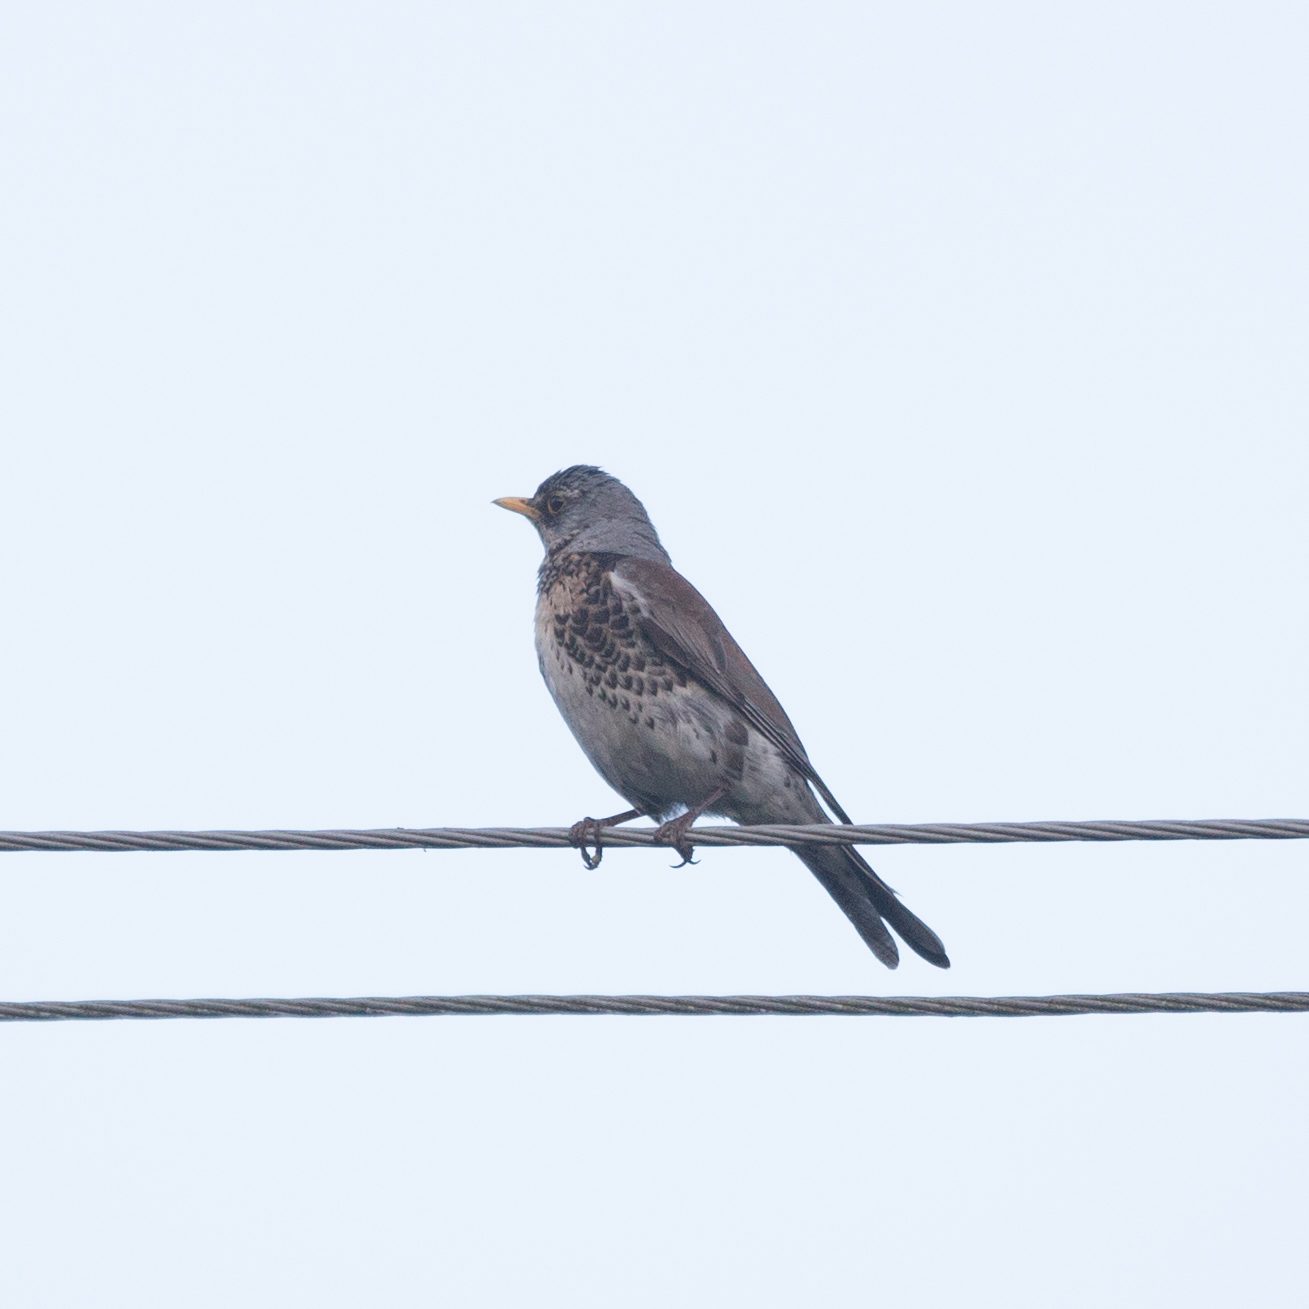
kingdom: Animalia
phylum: Chordata
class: Aves
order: Passeriformes
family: Turdidae
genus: Turdus
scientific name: Turdus pilaris
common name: Fieldfare
